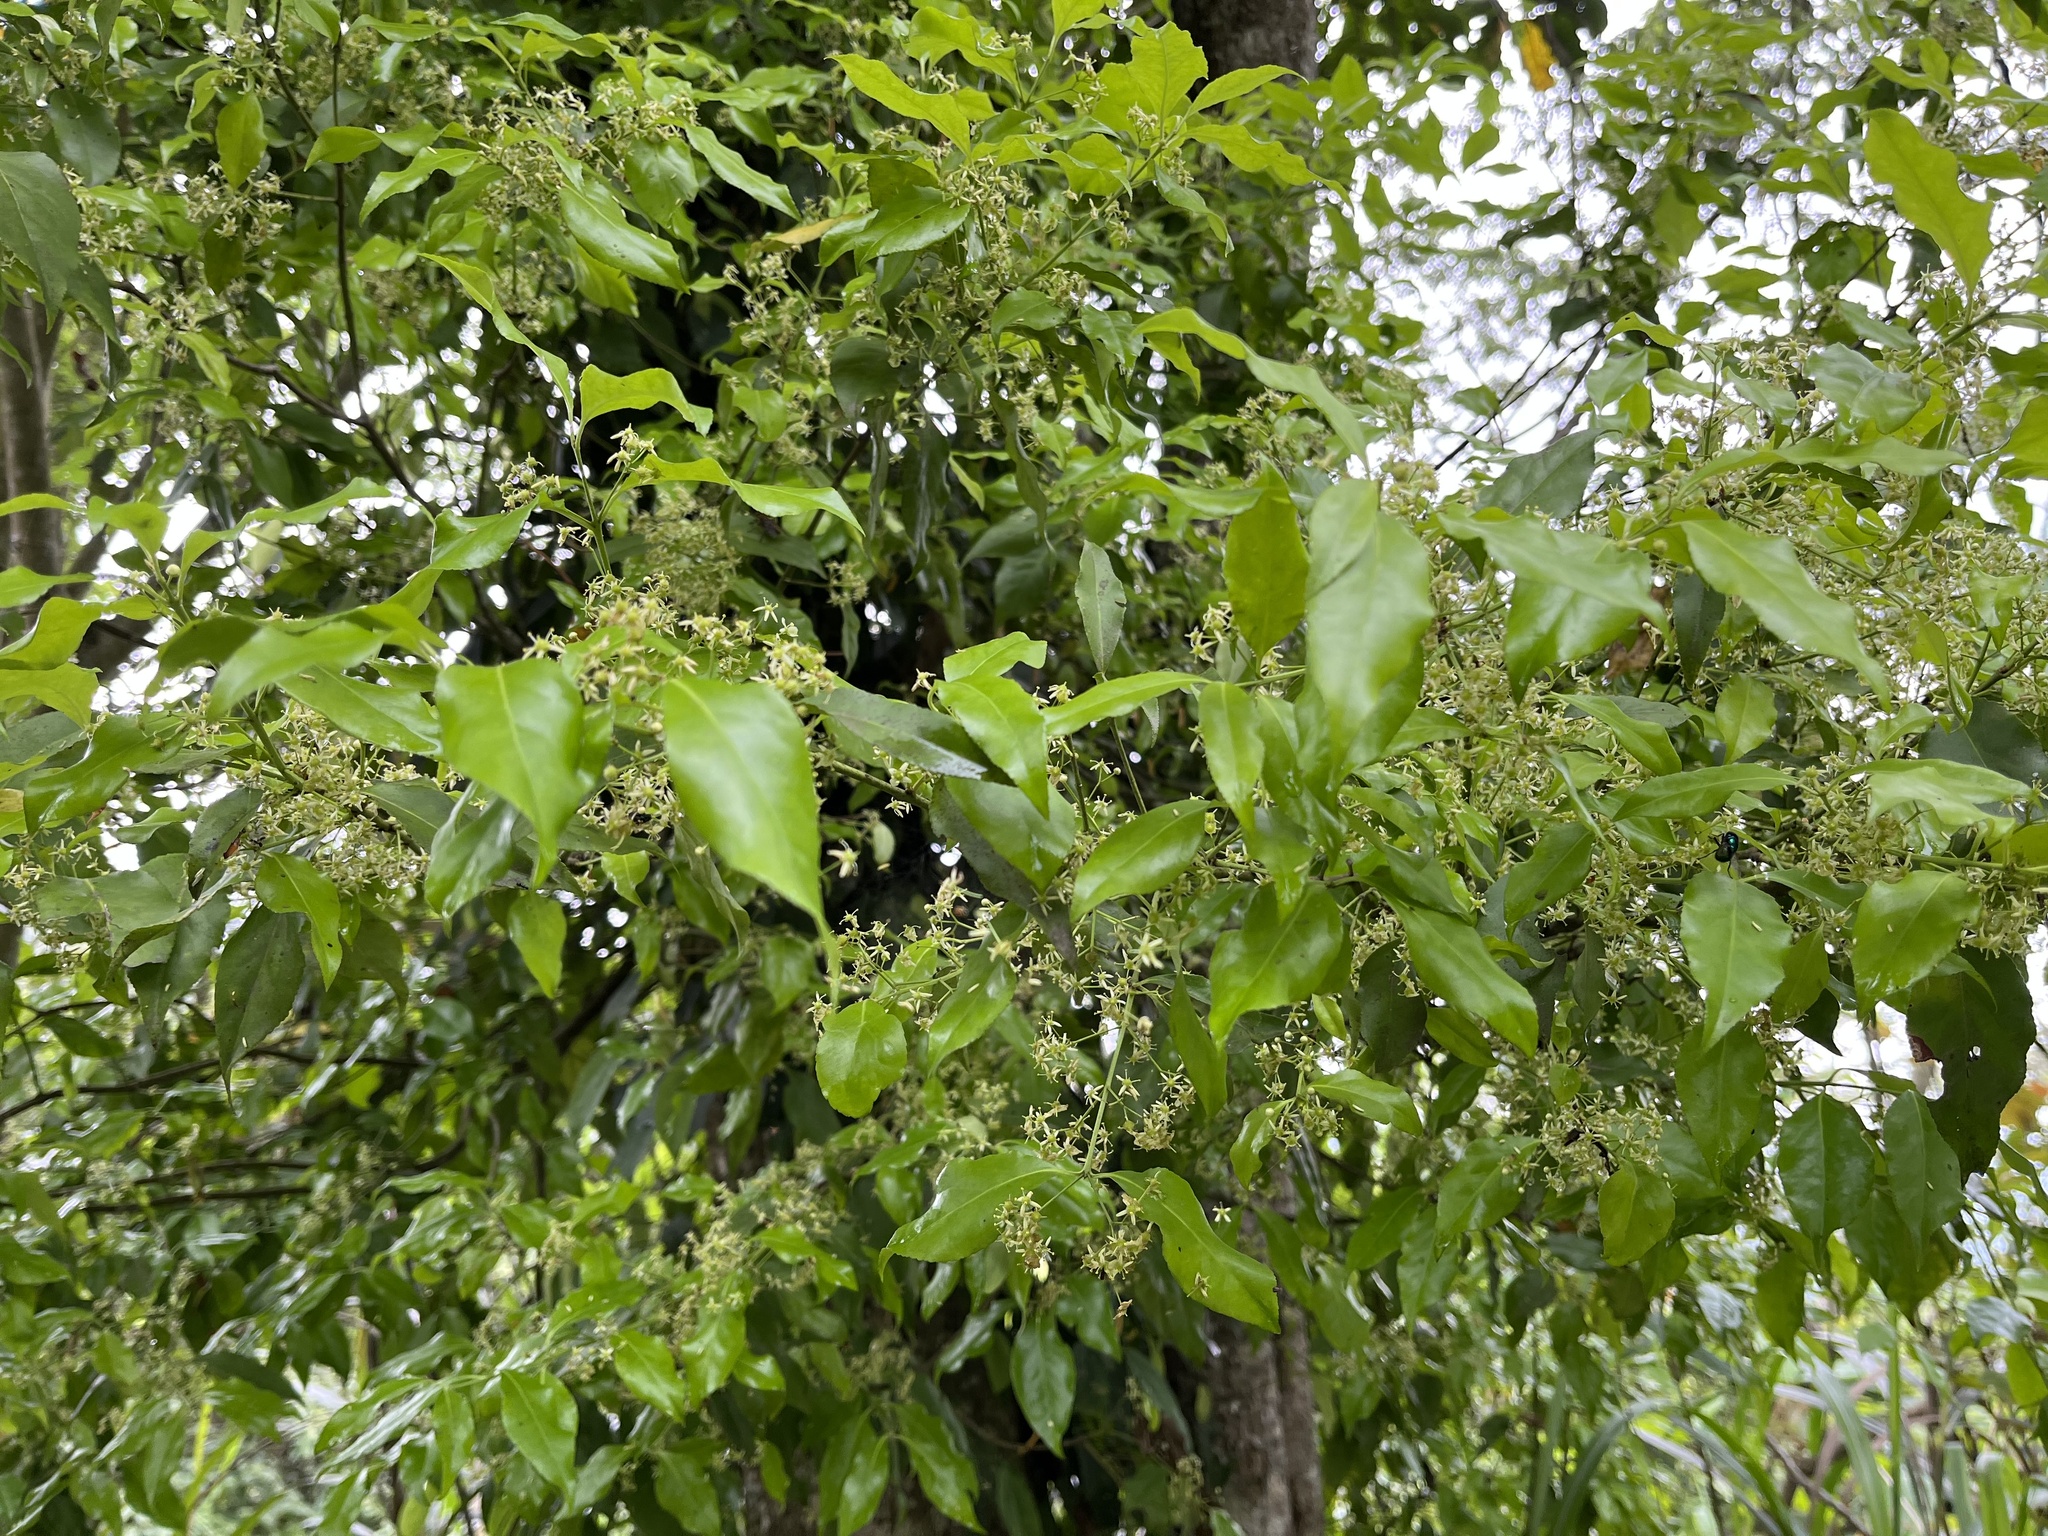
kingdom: Plantae
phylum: Tracheophyta
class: Magnoliopsida
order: Celastrales
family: Celastraceae
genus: Euonymus
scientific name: Euonymus spraguei
